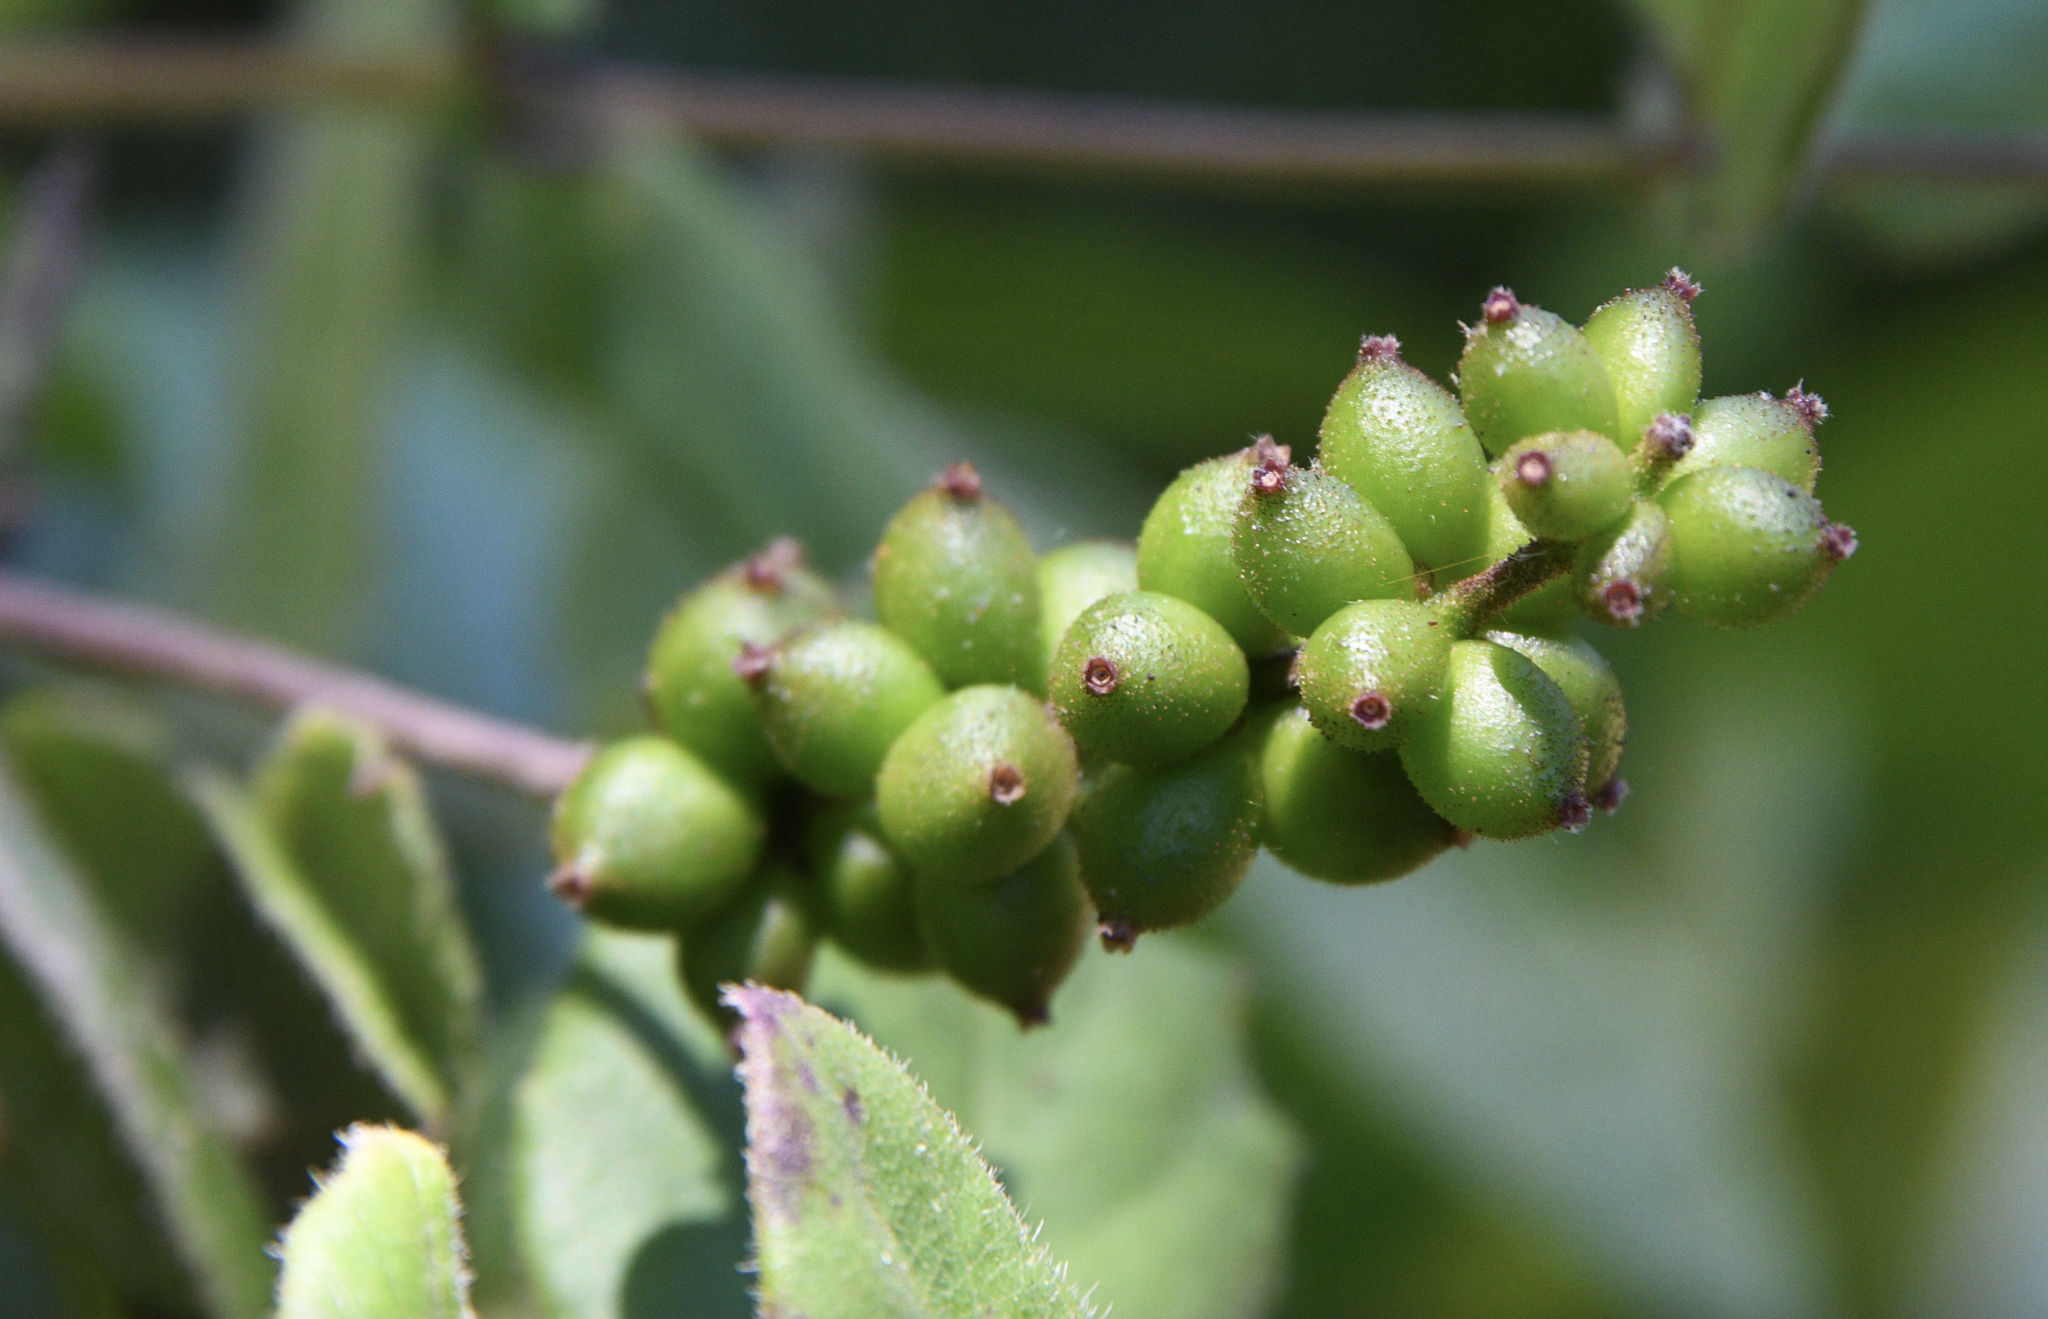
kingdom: Plantae
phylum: Tracheophyta
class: Magnoliopsida
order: Dipsacales
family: Caprifoliaceae
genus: Lonicera
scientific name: Lonicera hispidula
